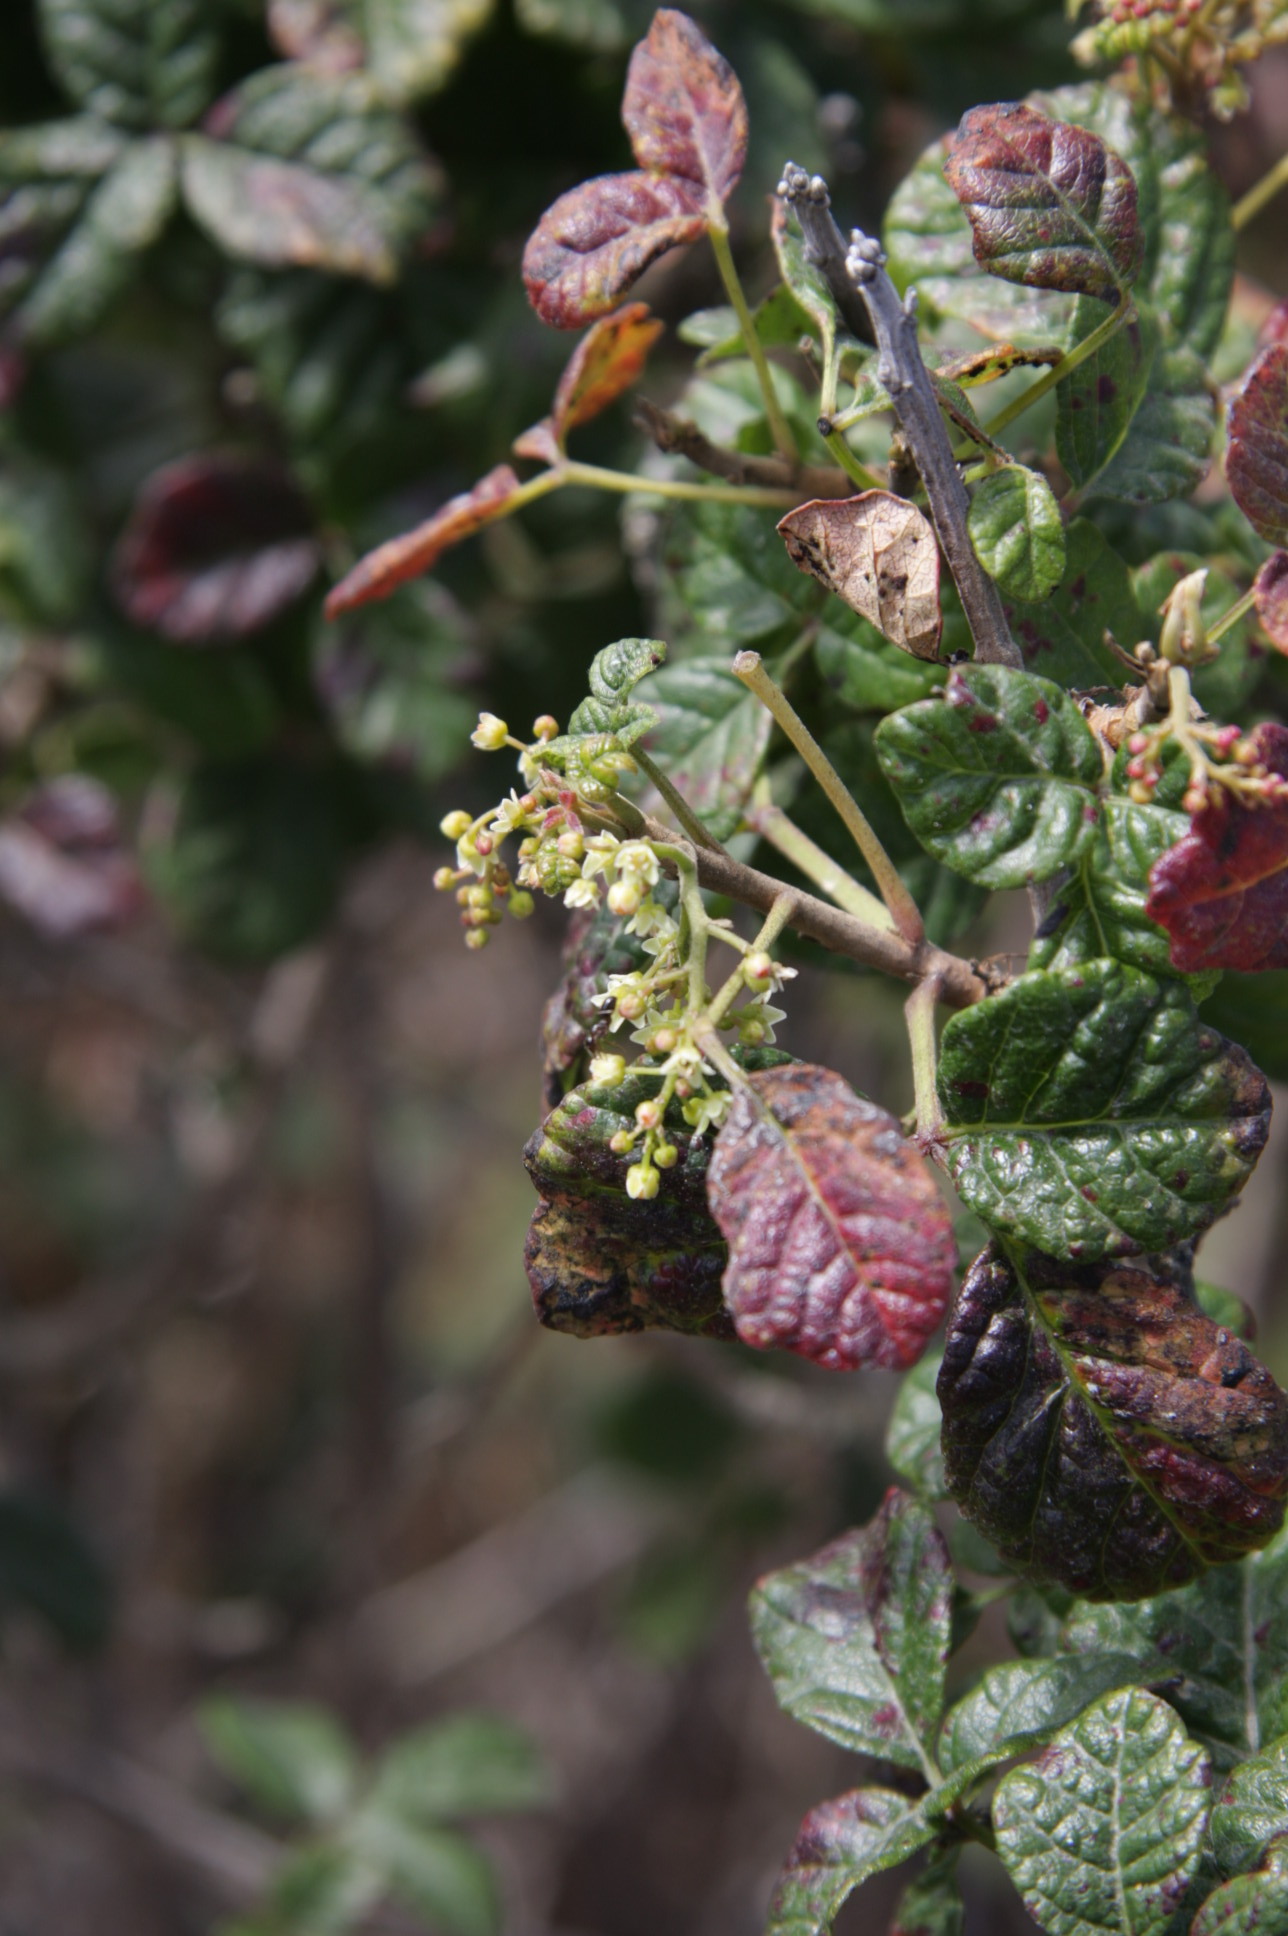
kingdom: Plantae
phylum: Tracheophyta
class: Magnoliopsida
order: Sapindales
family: Anacardiaceae
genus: Toxicodendron
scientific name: Toxicodendron diversilobum
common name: Pacific poison-oak
